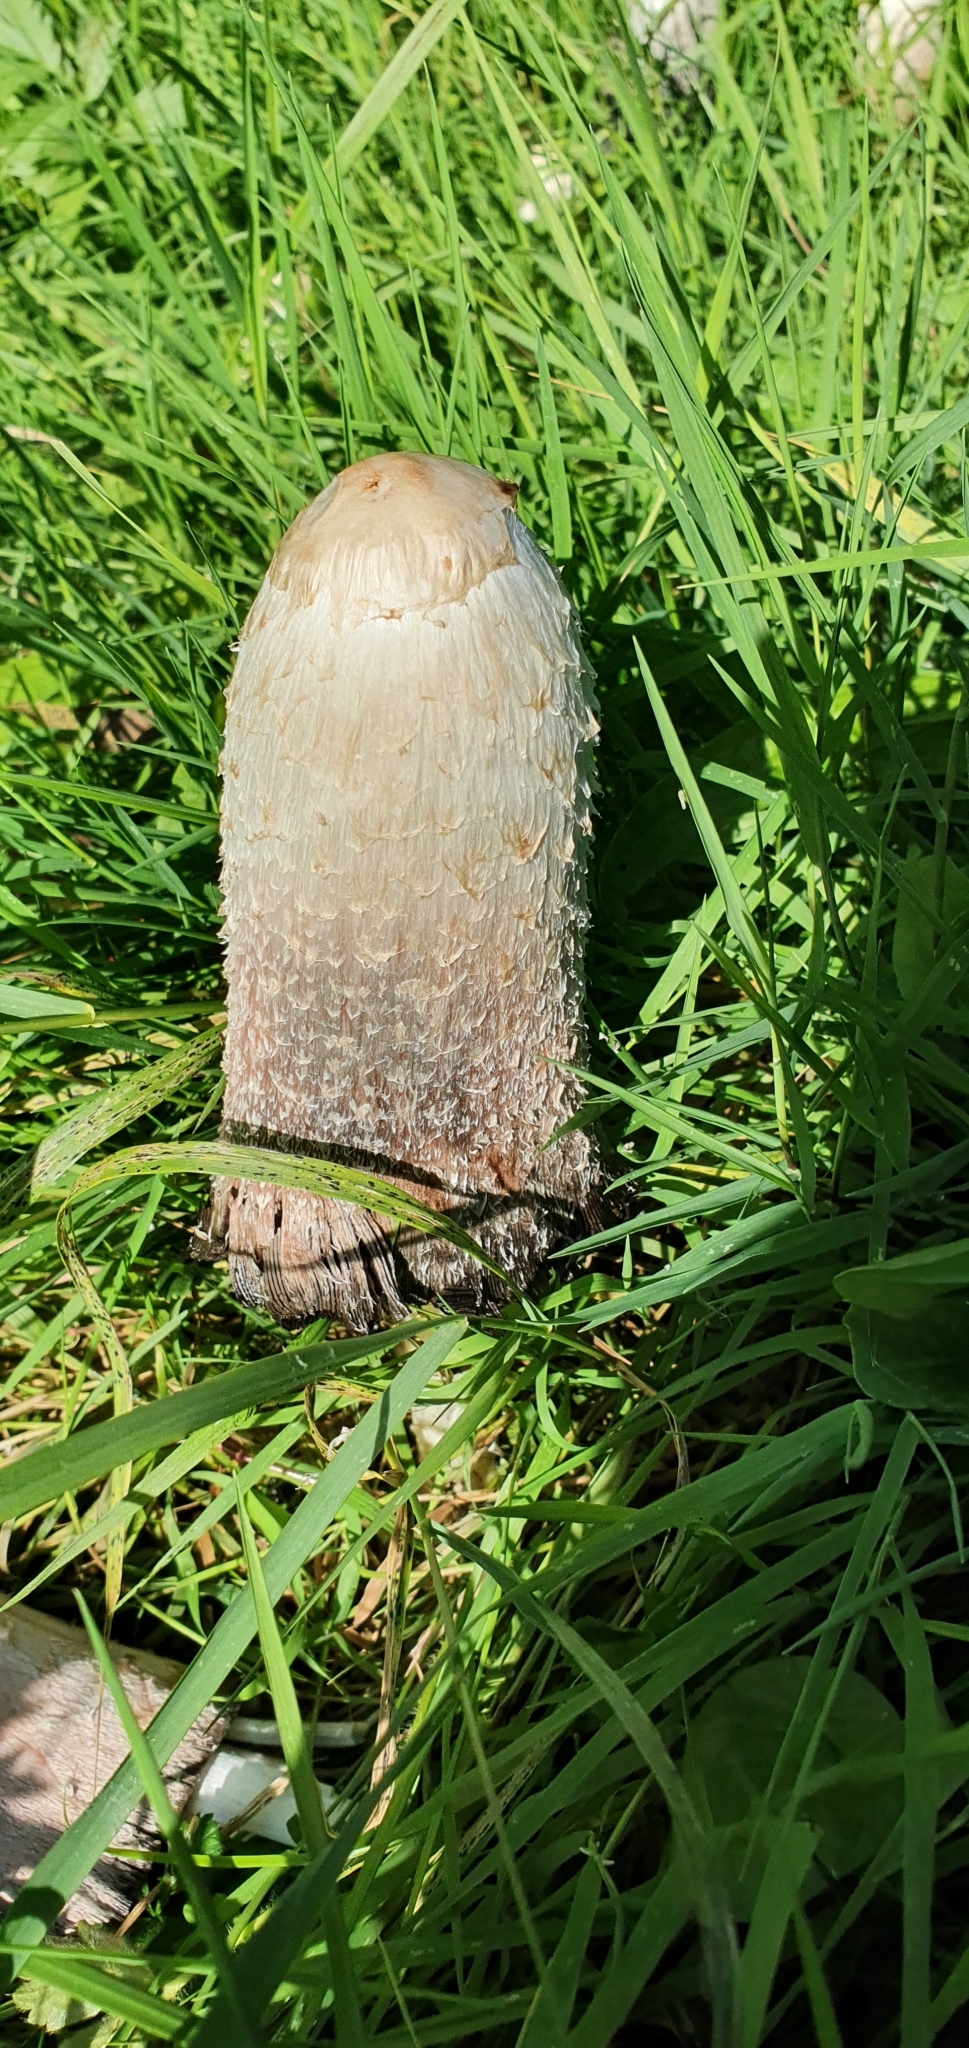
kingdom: Fungi
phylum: Basidiomycota
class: Agaricomycetes
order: Agaricales
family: Agaricaceae
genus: Coprinus
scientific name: Coprinus comatus
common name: Lawyer's wig
